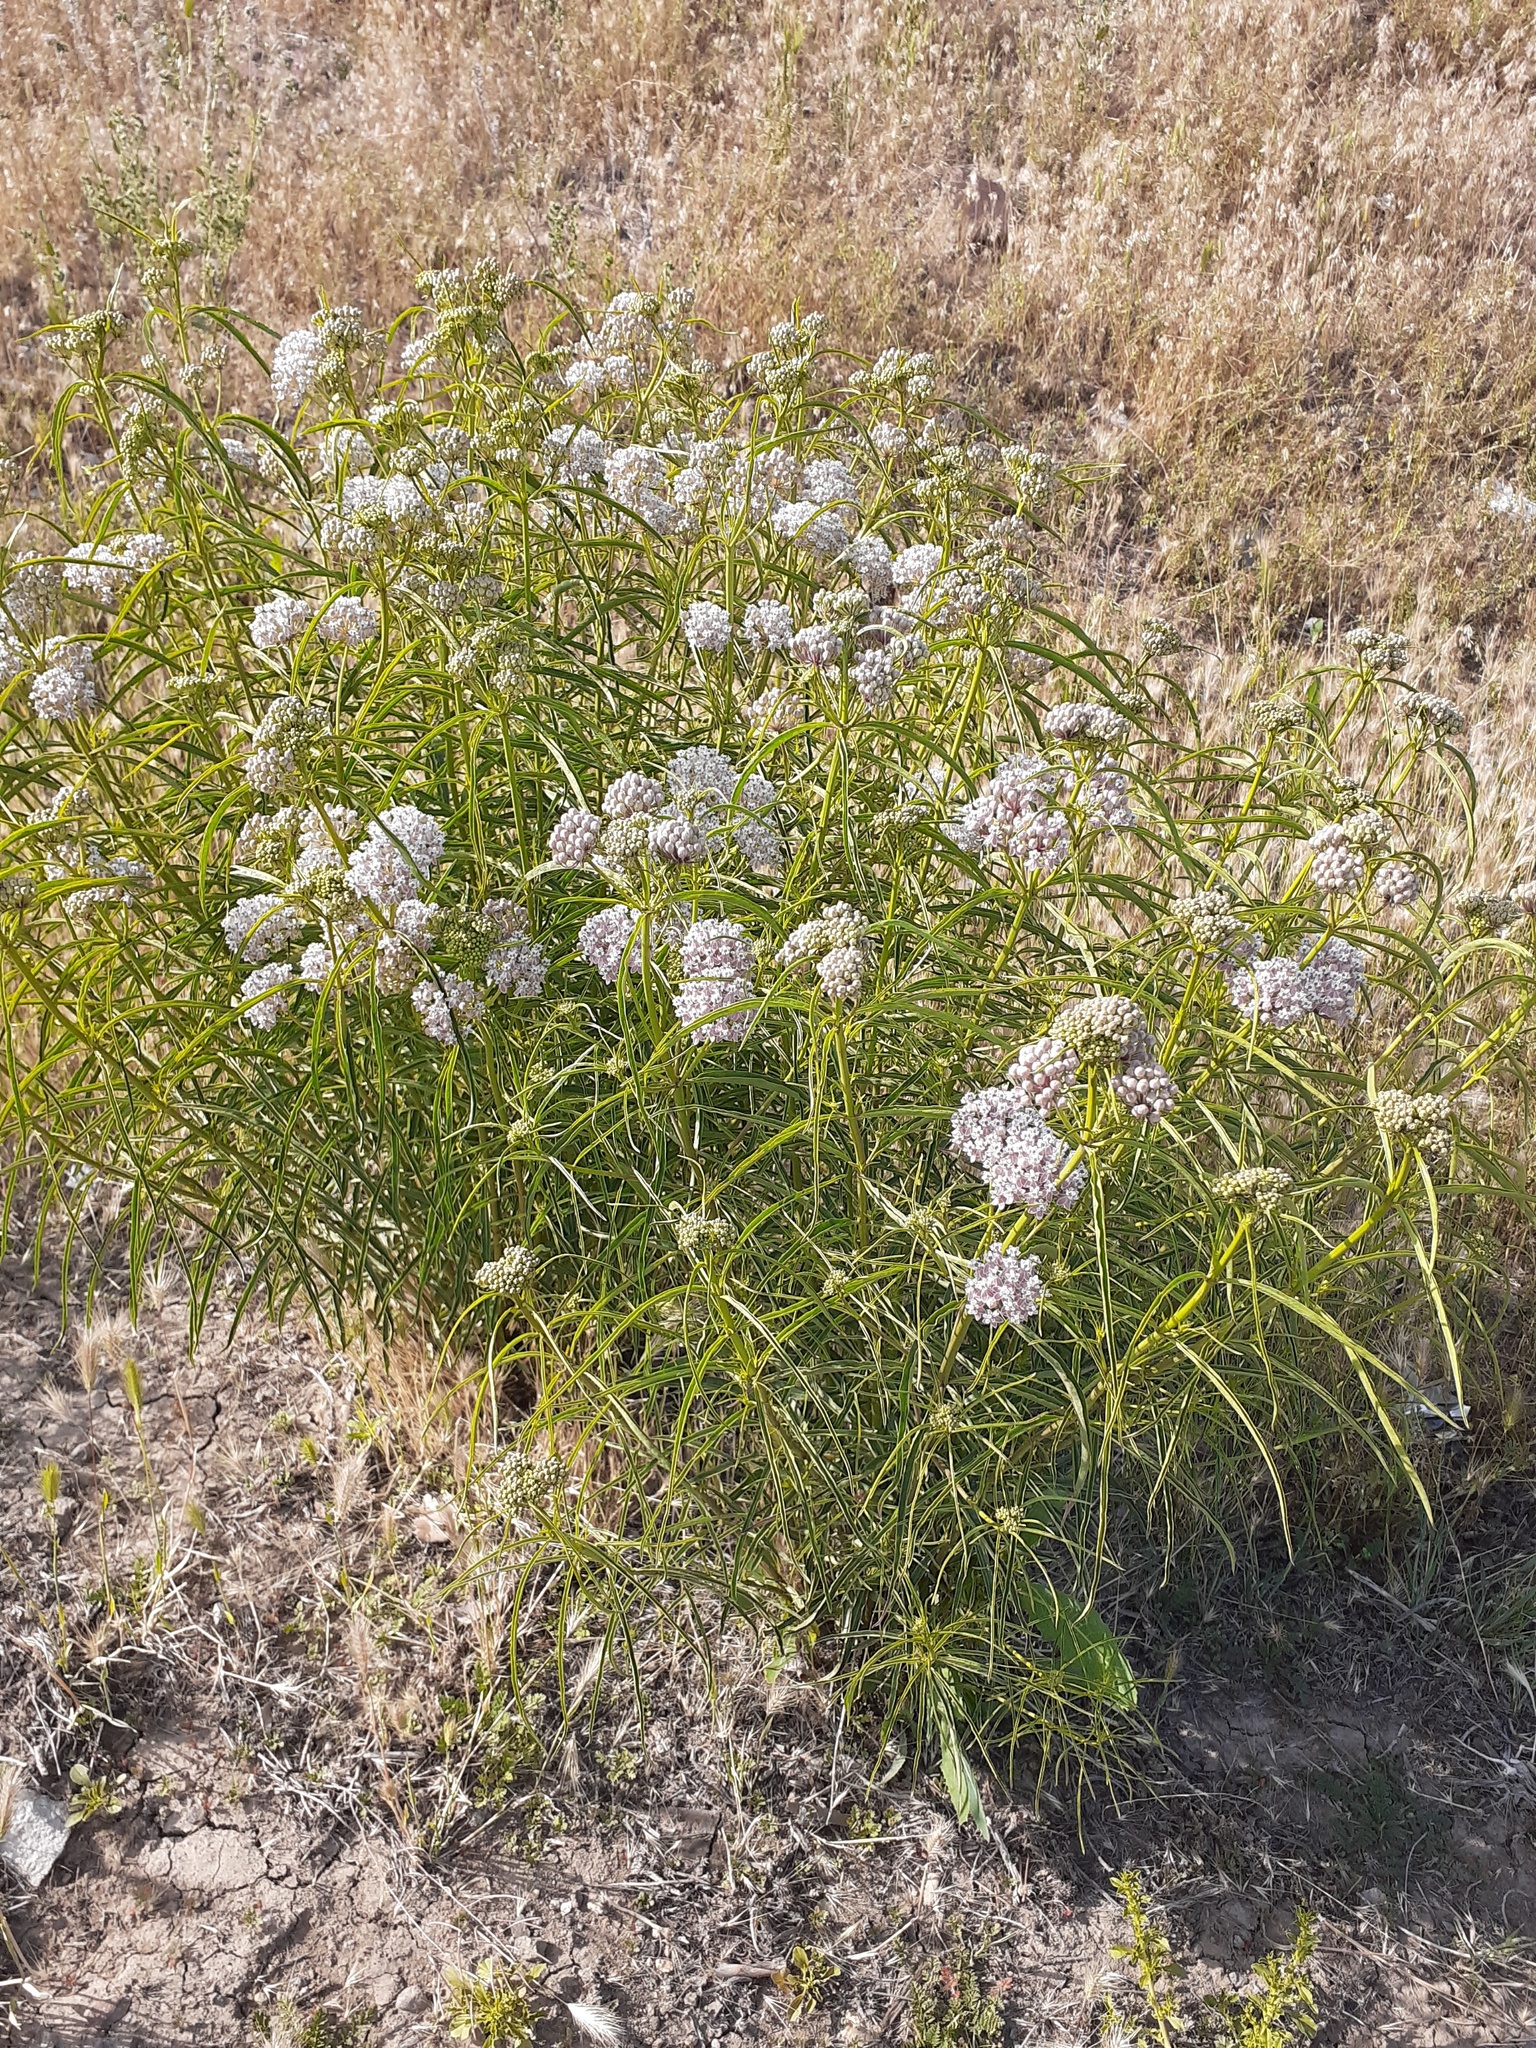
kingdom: Plantae
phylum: Tracheophyta
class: Magnoliopsida
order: Gentianales
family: Apocynaceae
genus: Asclepias
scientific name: Asclepias fascicularis
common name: Mexican milkweed
